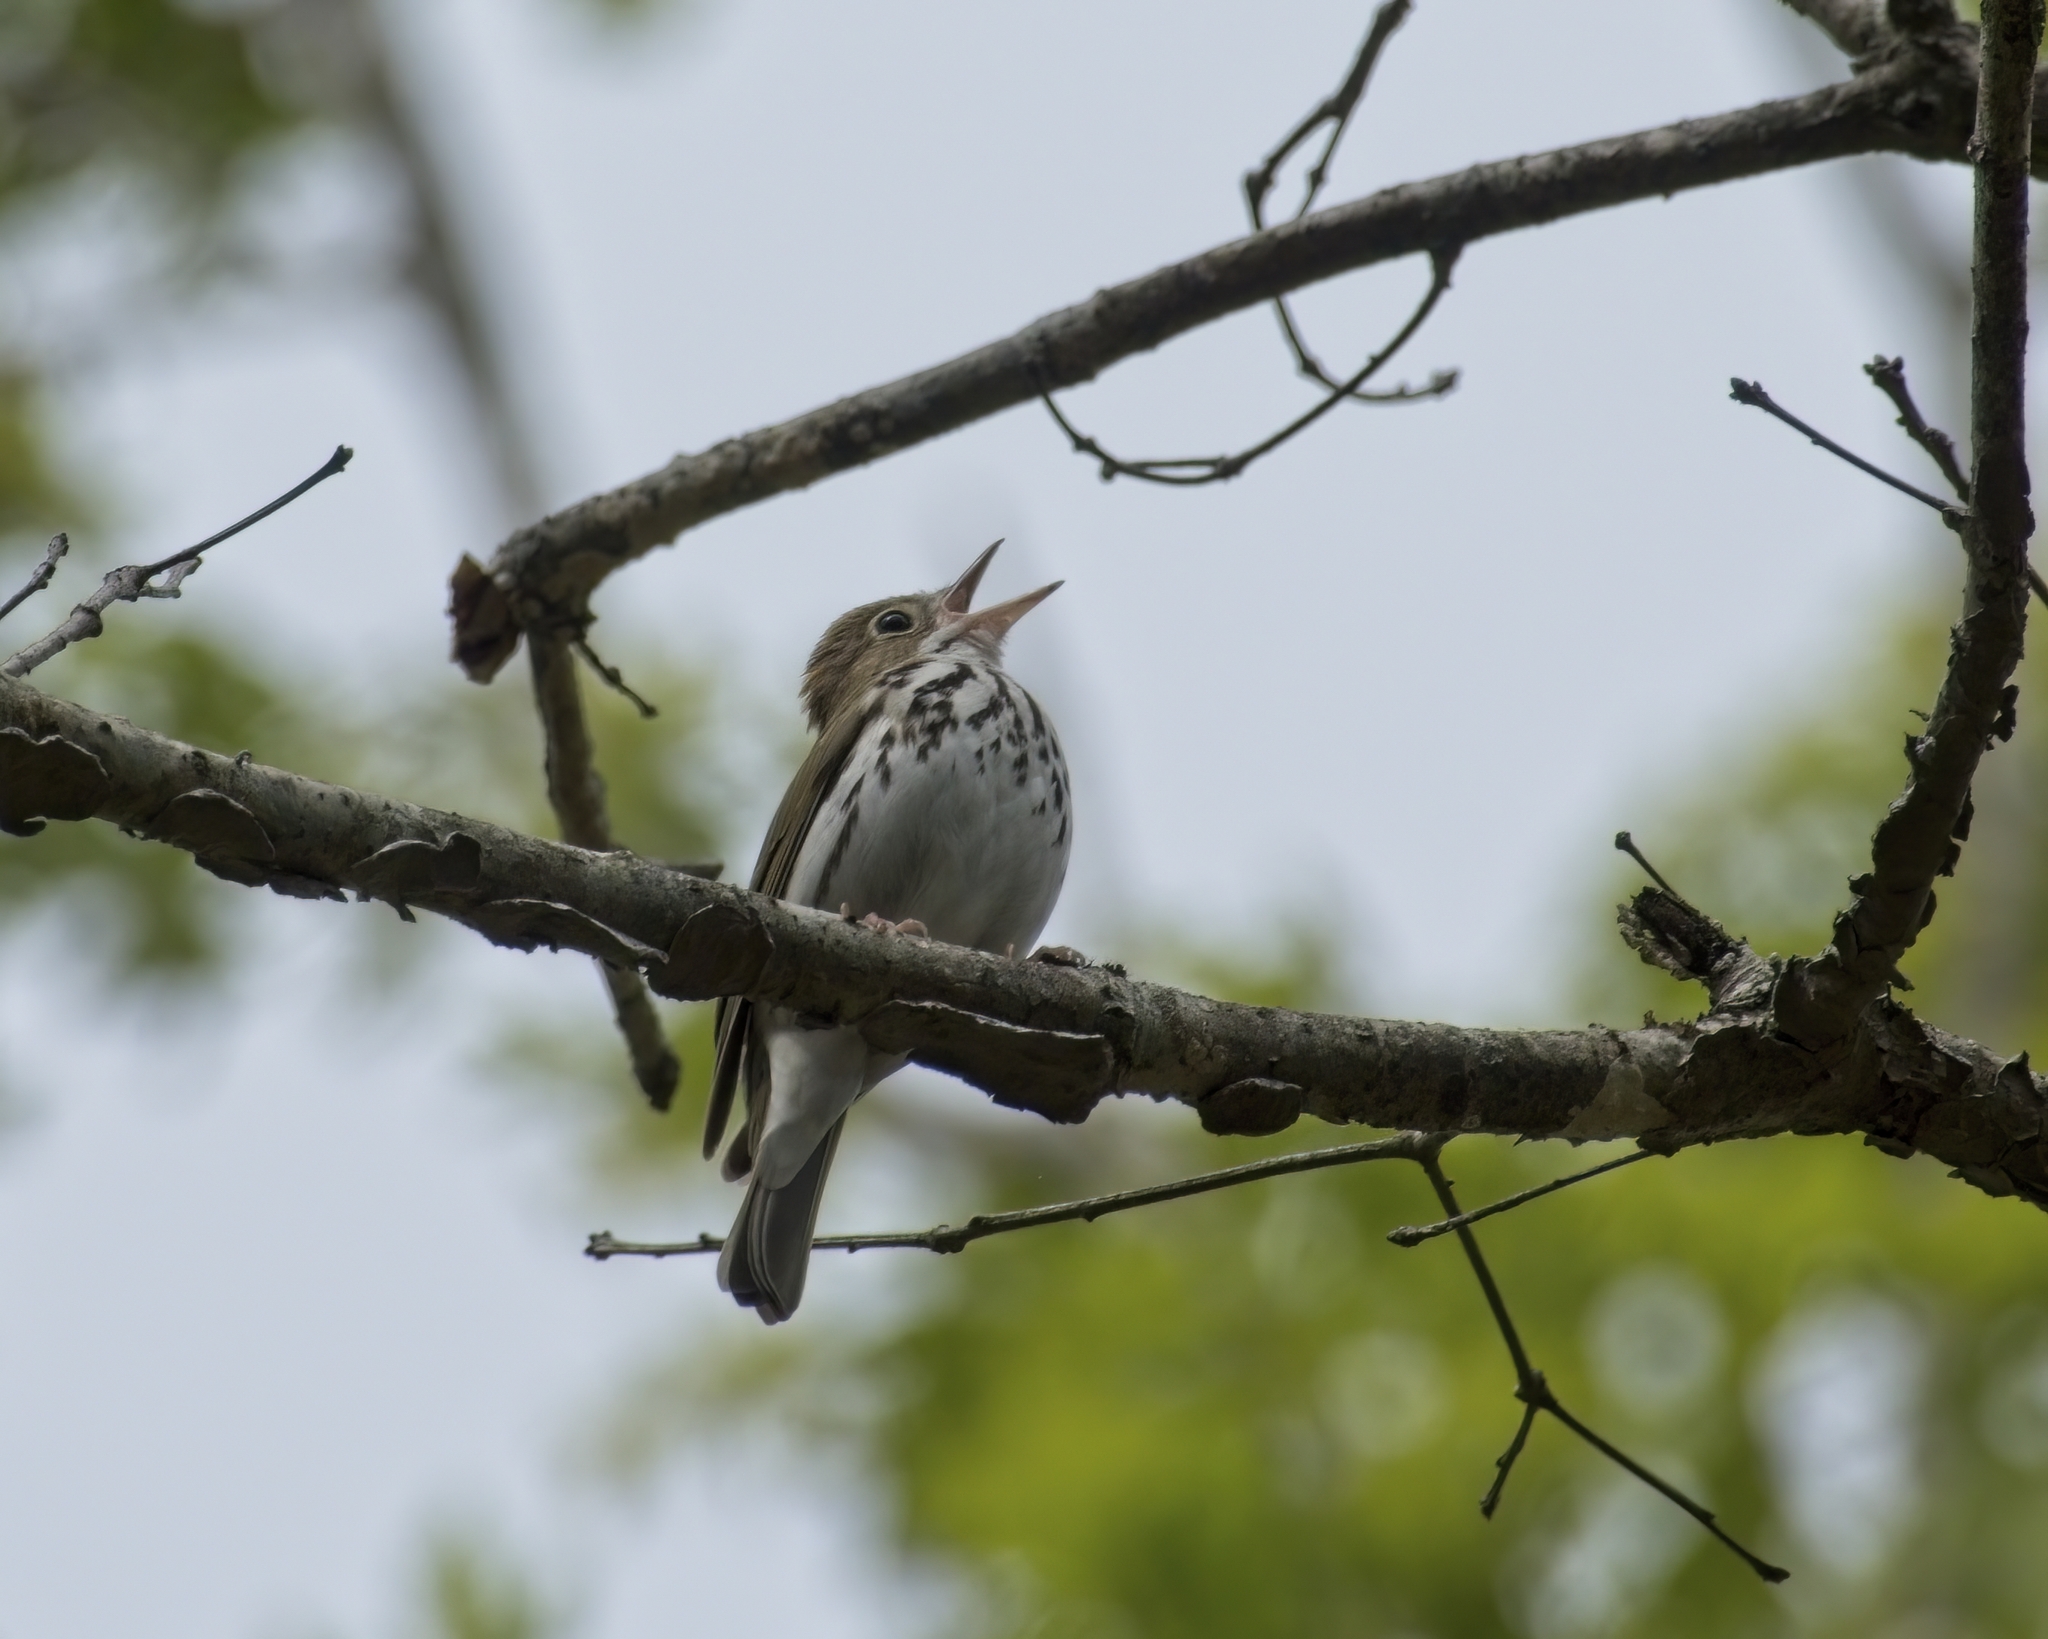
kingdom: Animalia
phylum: Chordata
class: Aves
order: Passeriformes
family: Parulidae
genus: Seiurus
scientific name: Seiurus aurocapilla
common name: Ovenbird
